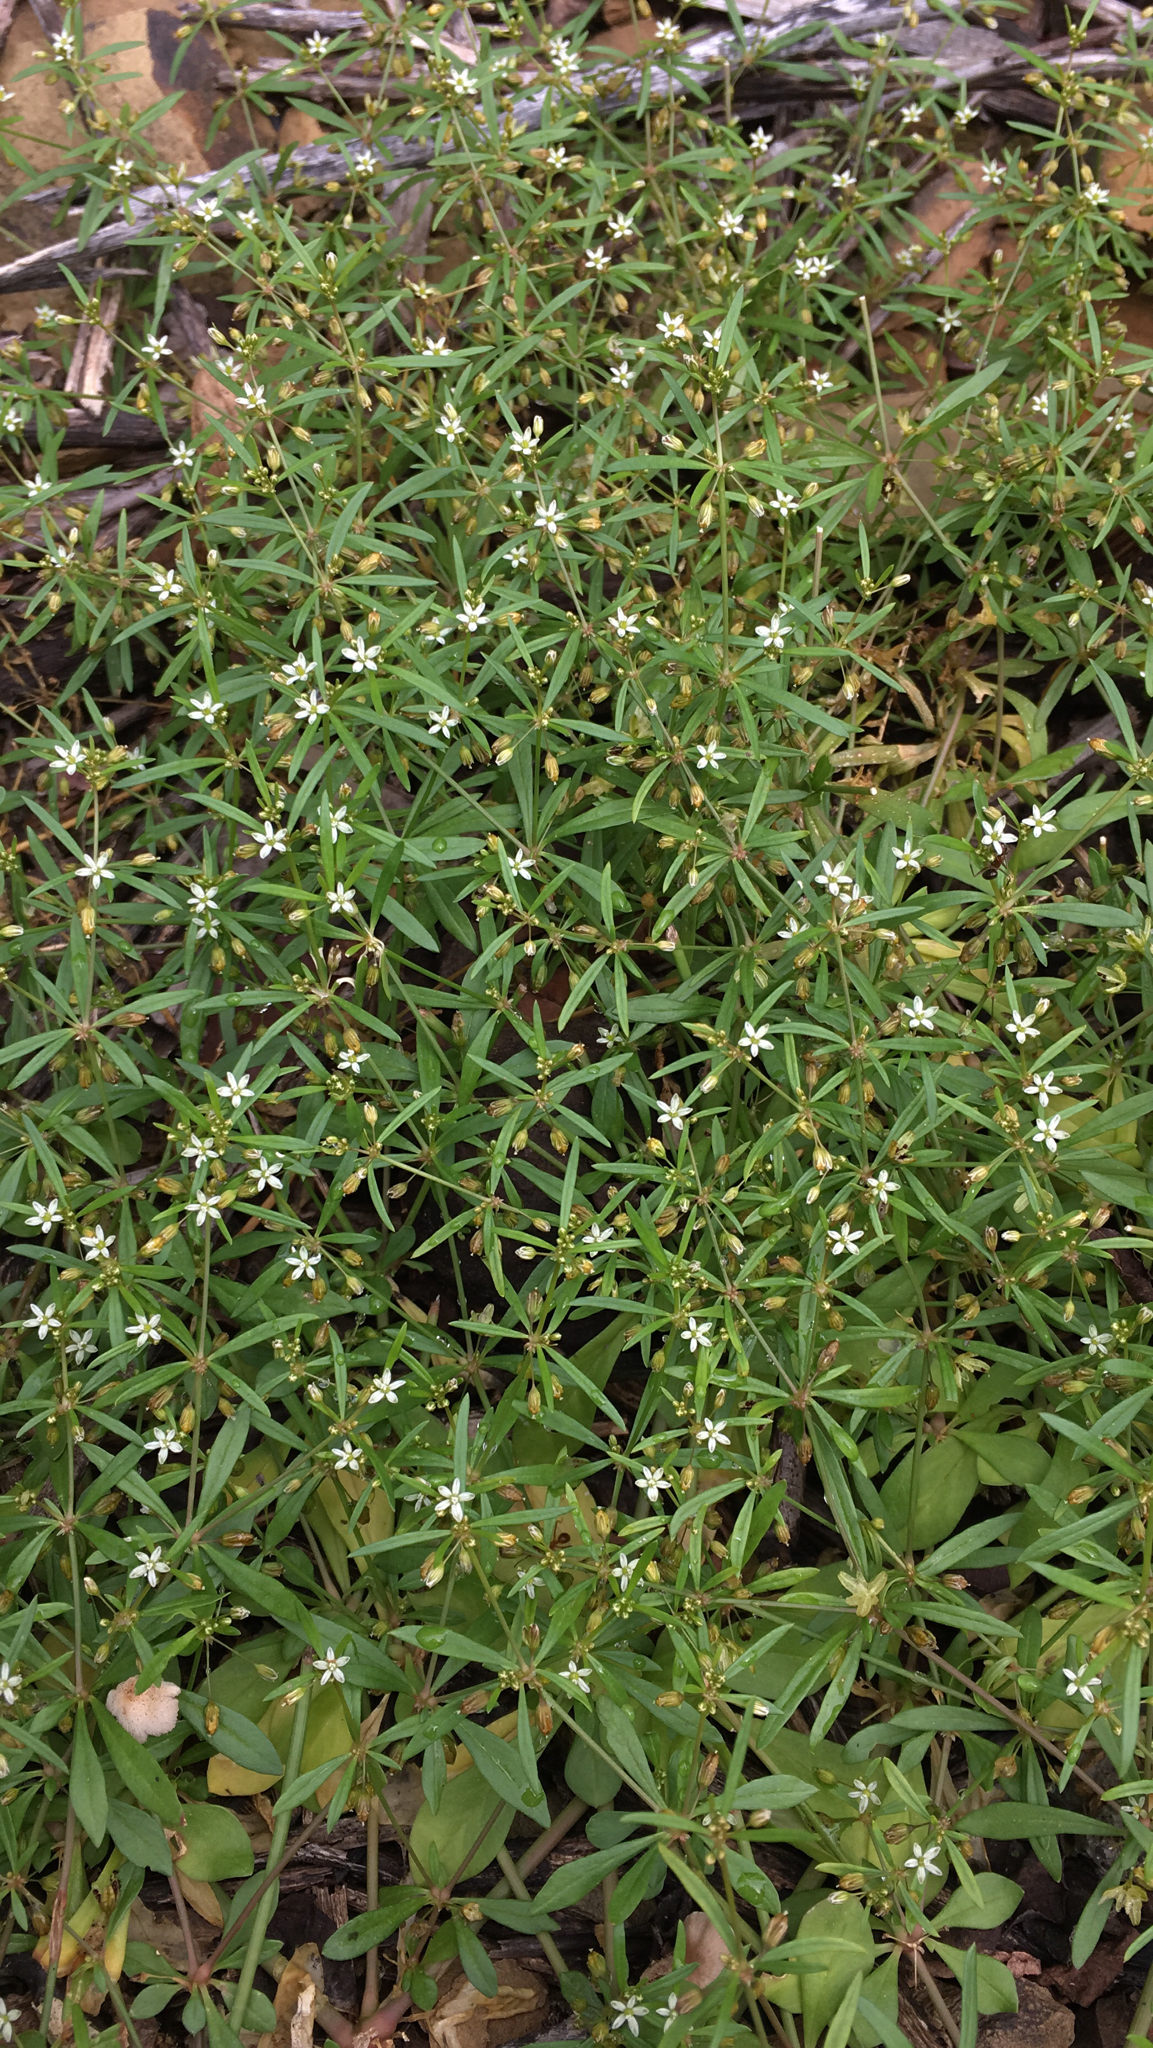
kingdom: Plantae
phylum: Tracheophyta
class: Magnoliopsida
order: Caryophyllales
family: Molluginaceae
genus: Mollugo
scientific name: Mollugo verticillata
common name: Green carpetweed
